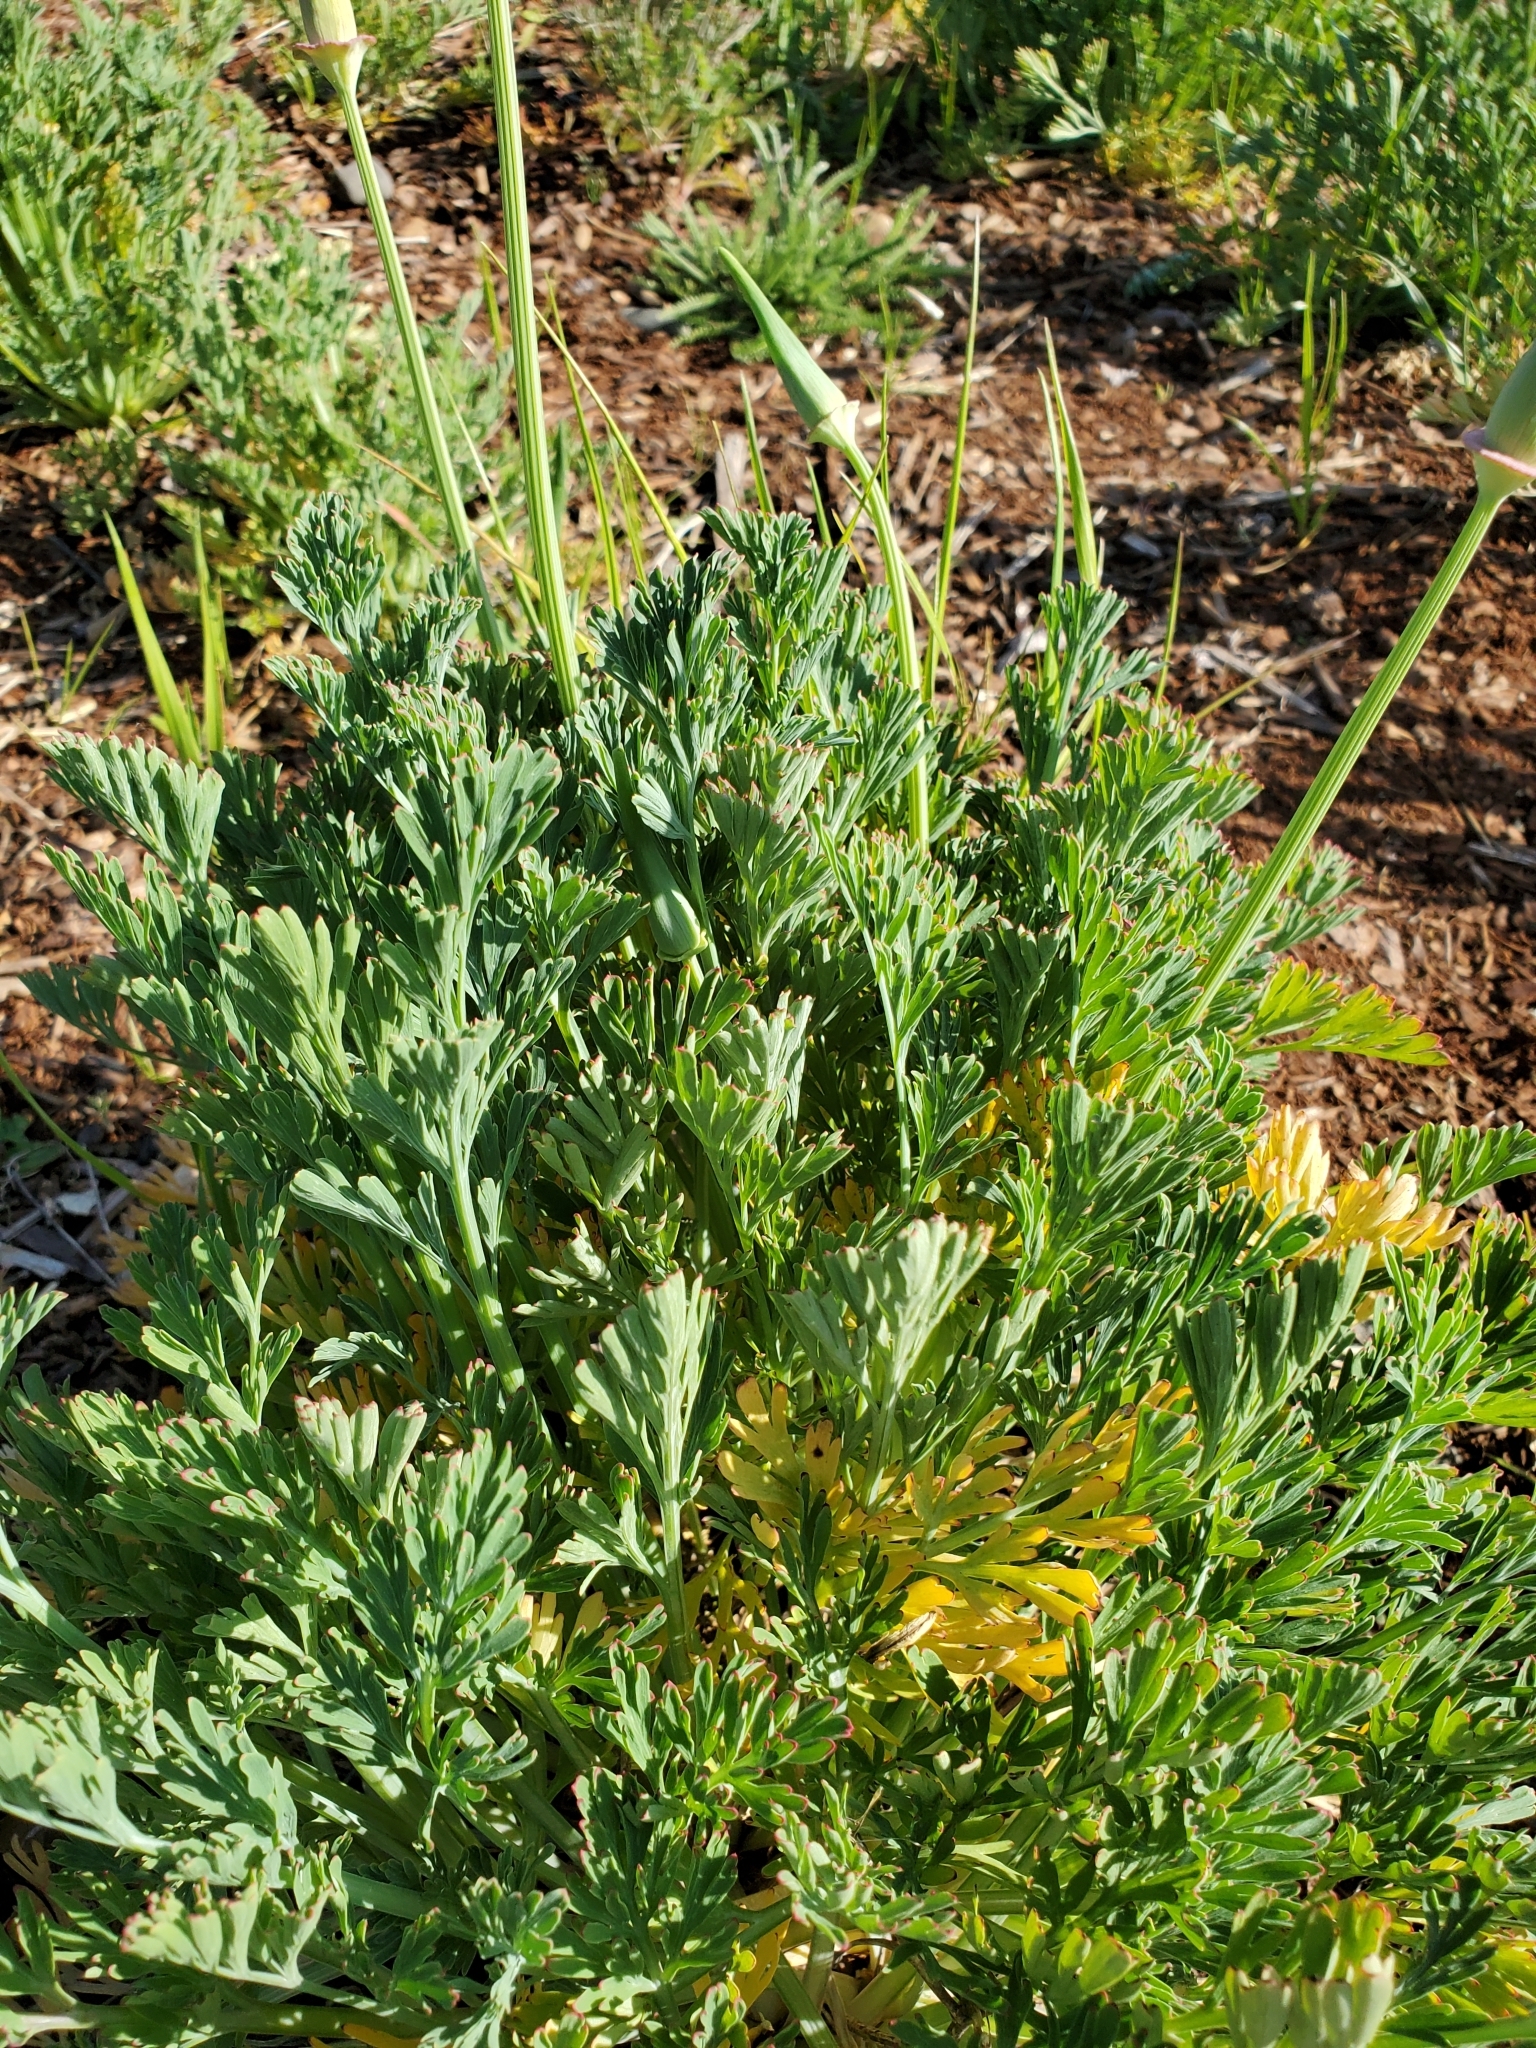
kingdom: Plantae
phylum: Tracheophyta
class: Magnoliopsida
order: Ranunculales
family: Papaveraceae
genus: Eschscholzia
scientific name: Eschscholzia californica
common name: California poppy
